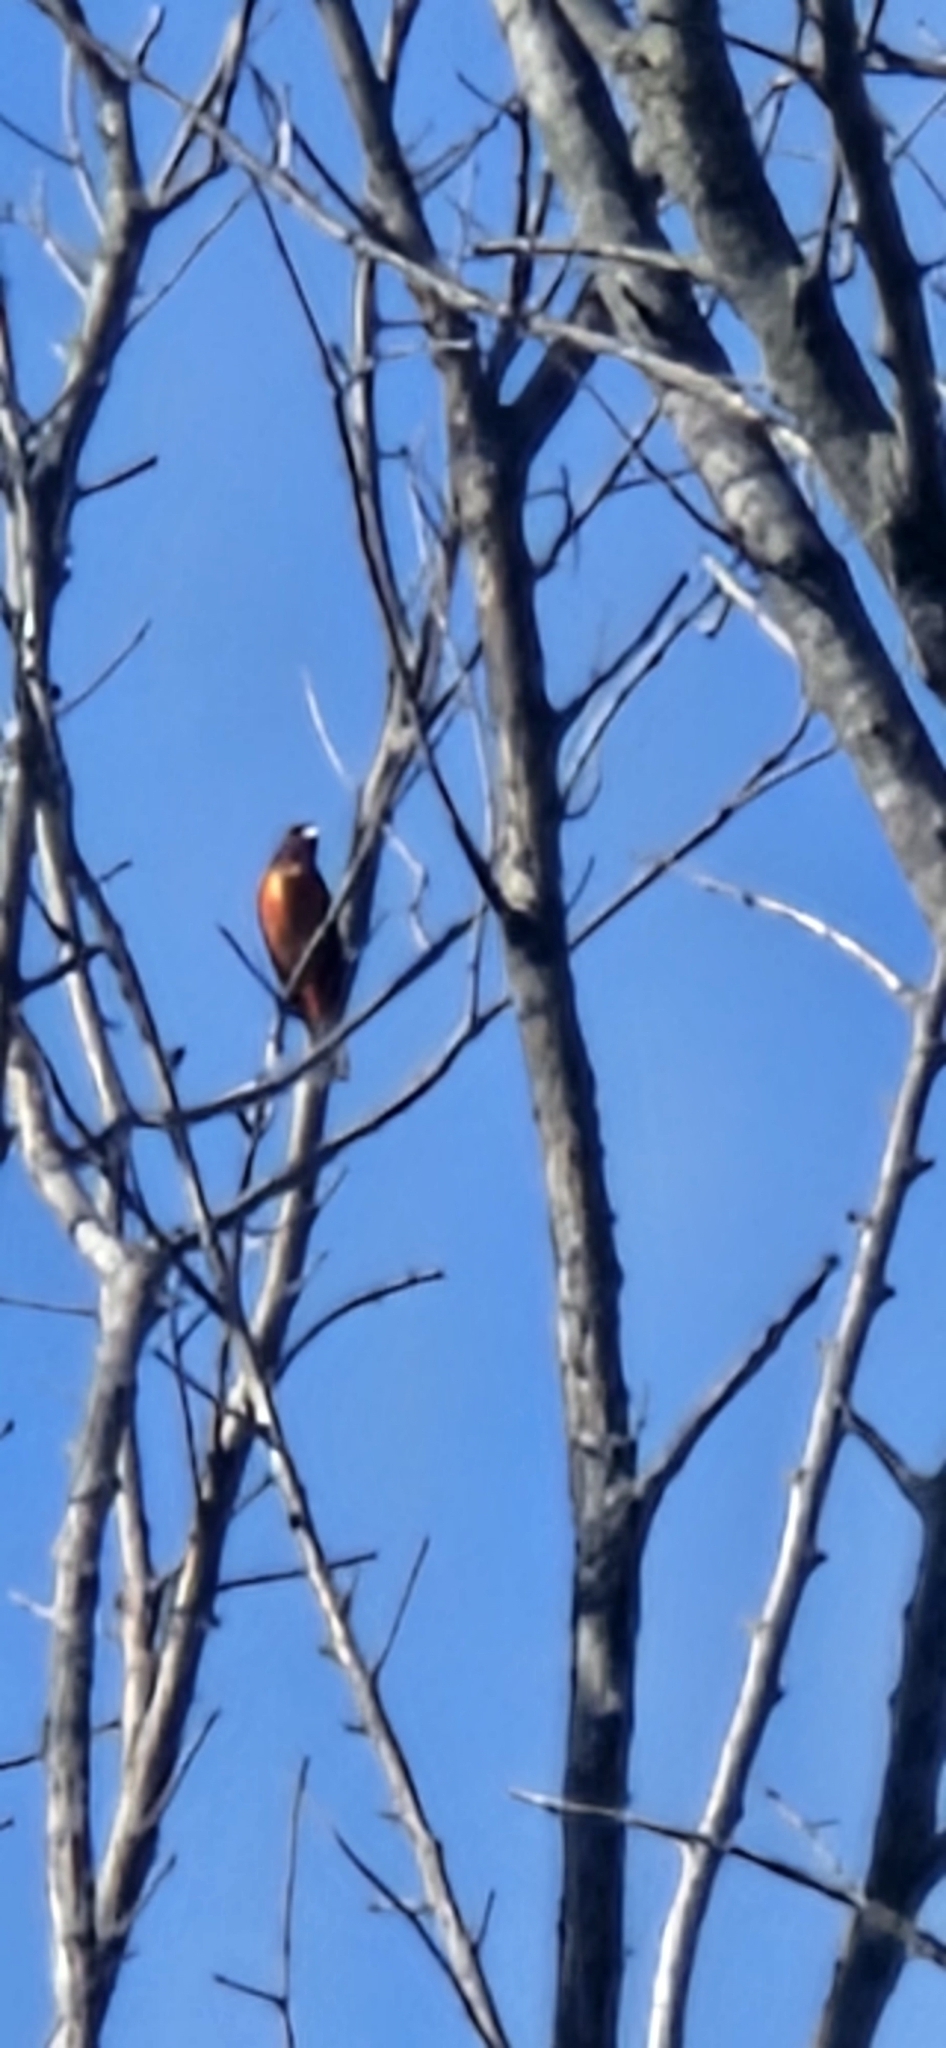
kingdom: Animalia
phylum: Chordata
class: Aves
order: Passeriformes
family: Cardinalidae
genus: Passerina
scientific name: Passerina ciris
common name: Painted bunting
